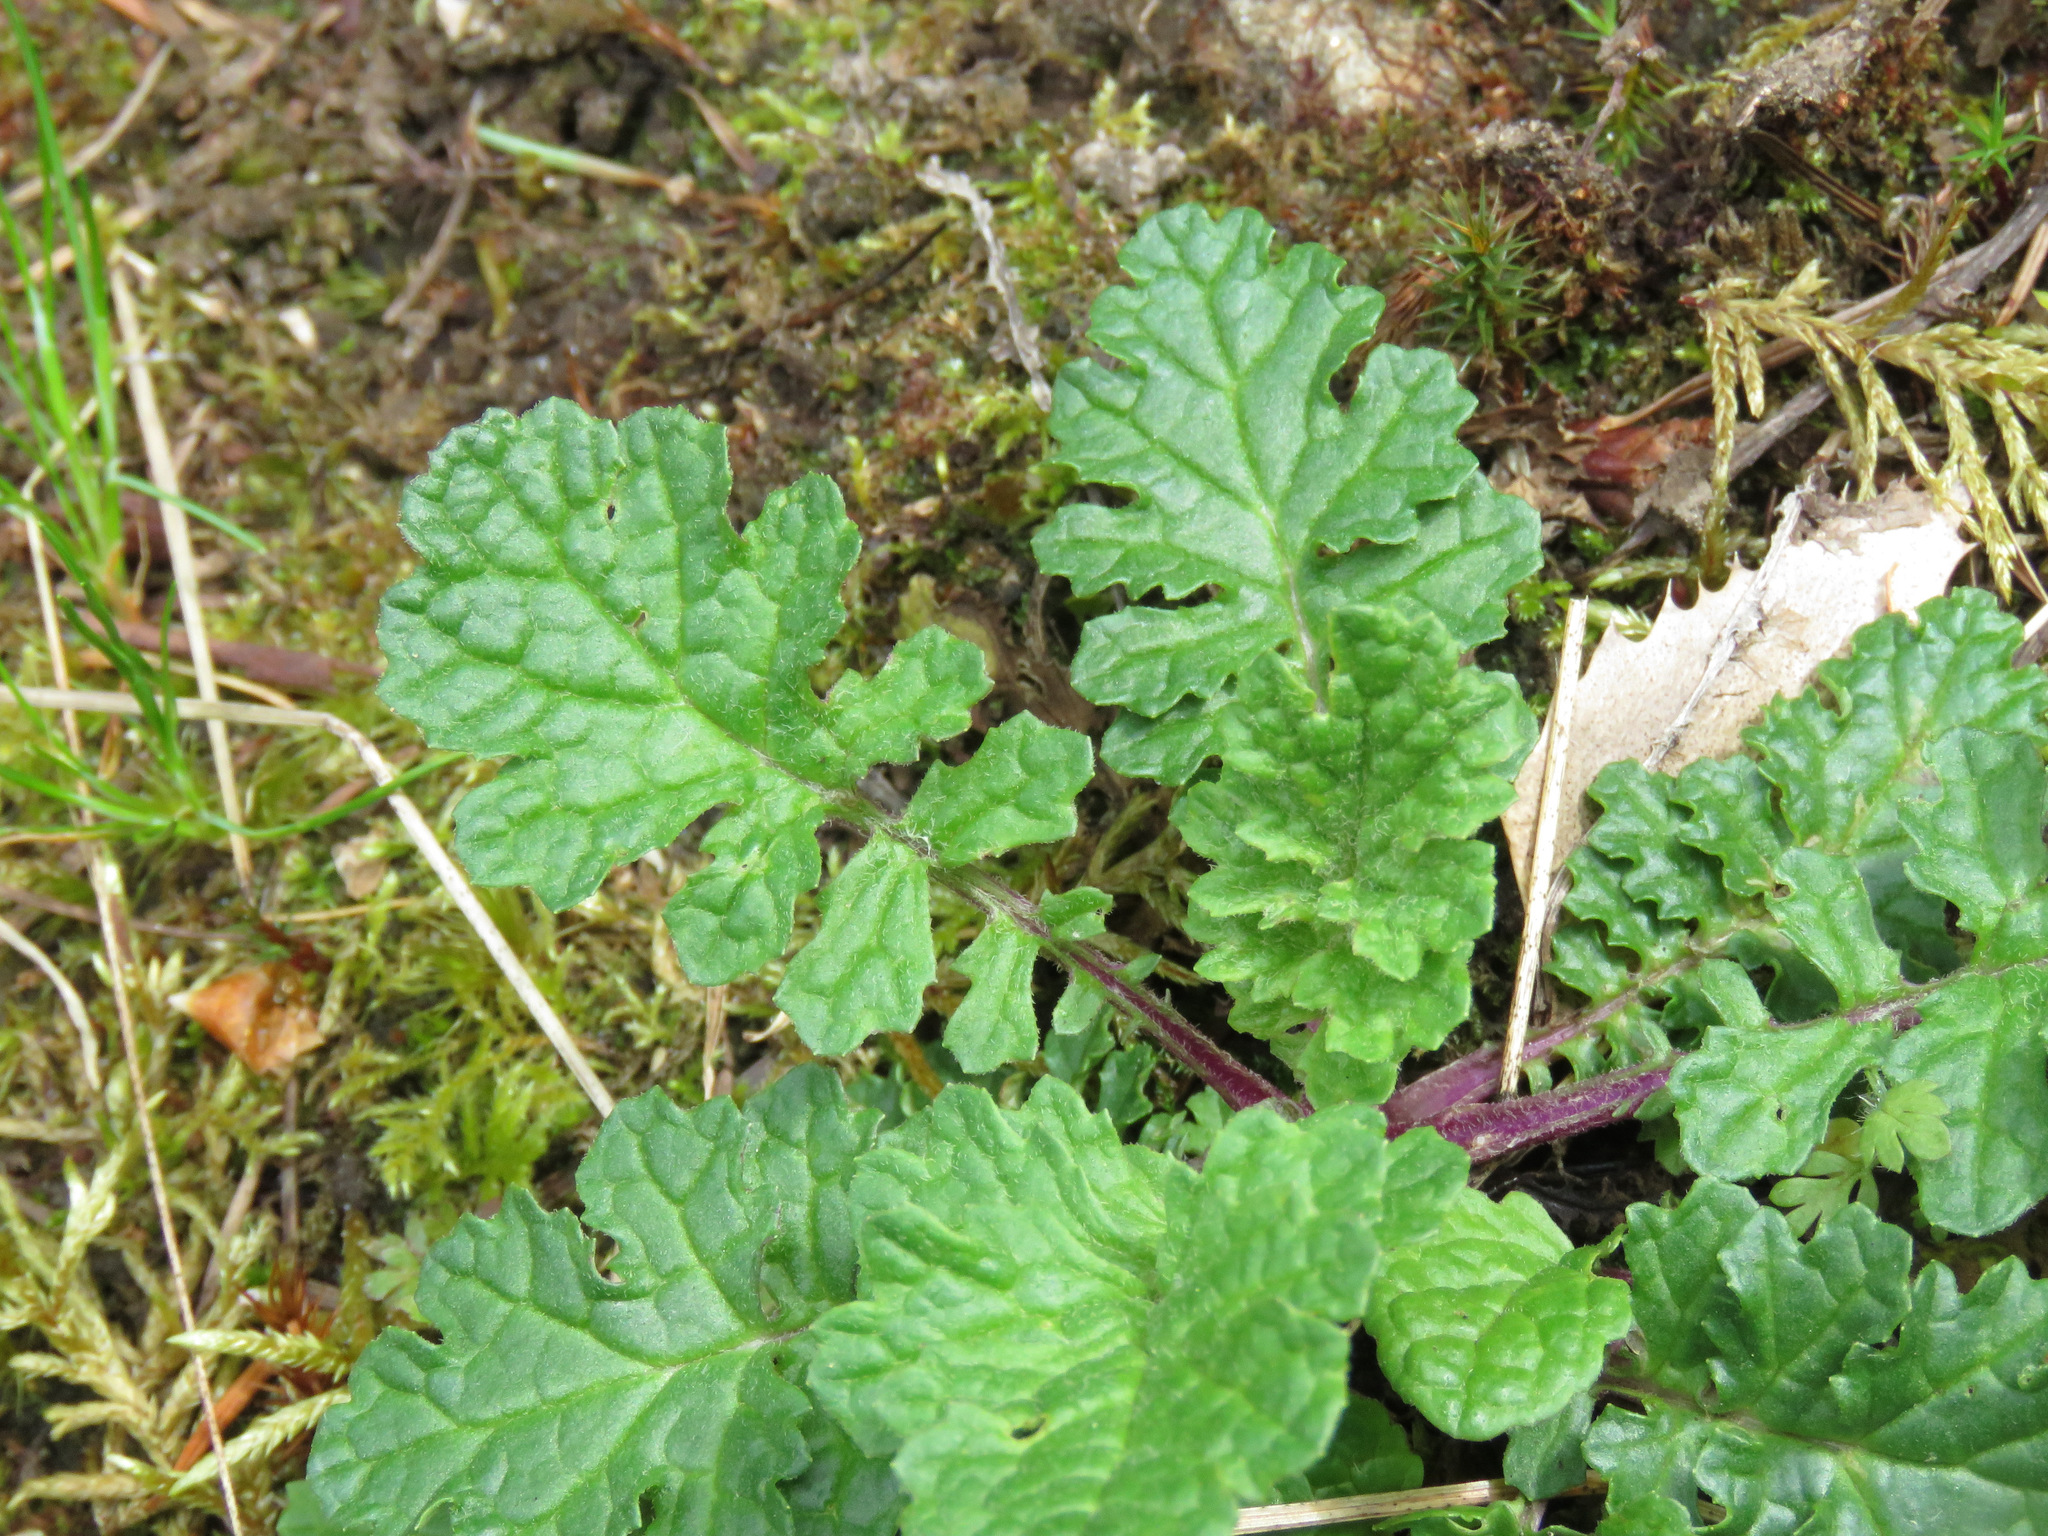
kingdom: Plantae
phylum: Tracheophyta
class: Magnoliopsida
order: Asterales
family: Asteraceae
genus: Jacobaea
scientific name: Jacobaea vulgaris
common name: Stinking willie
